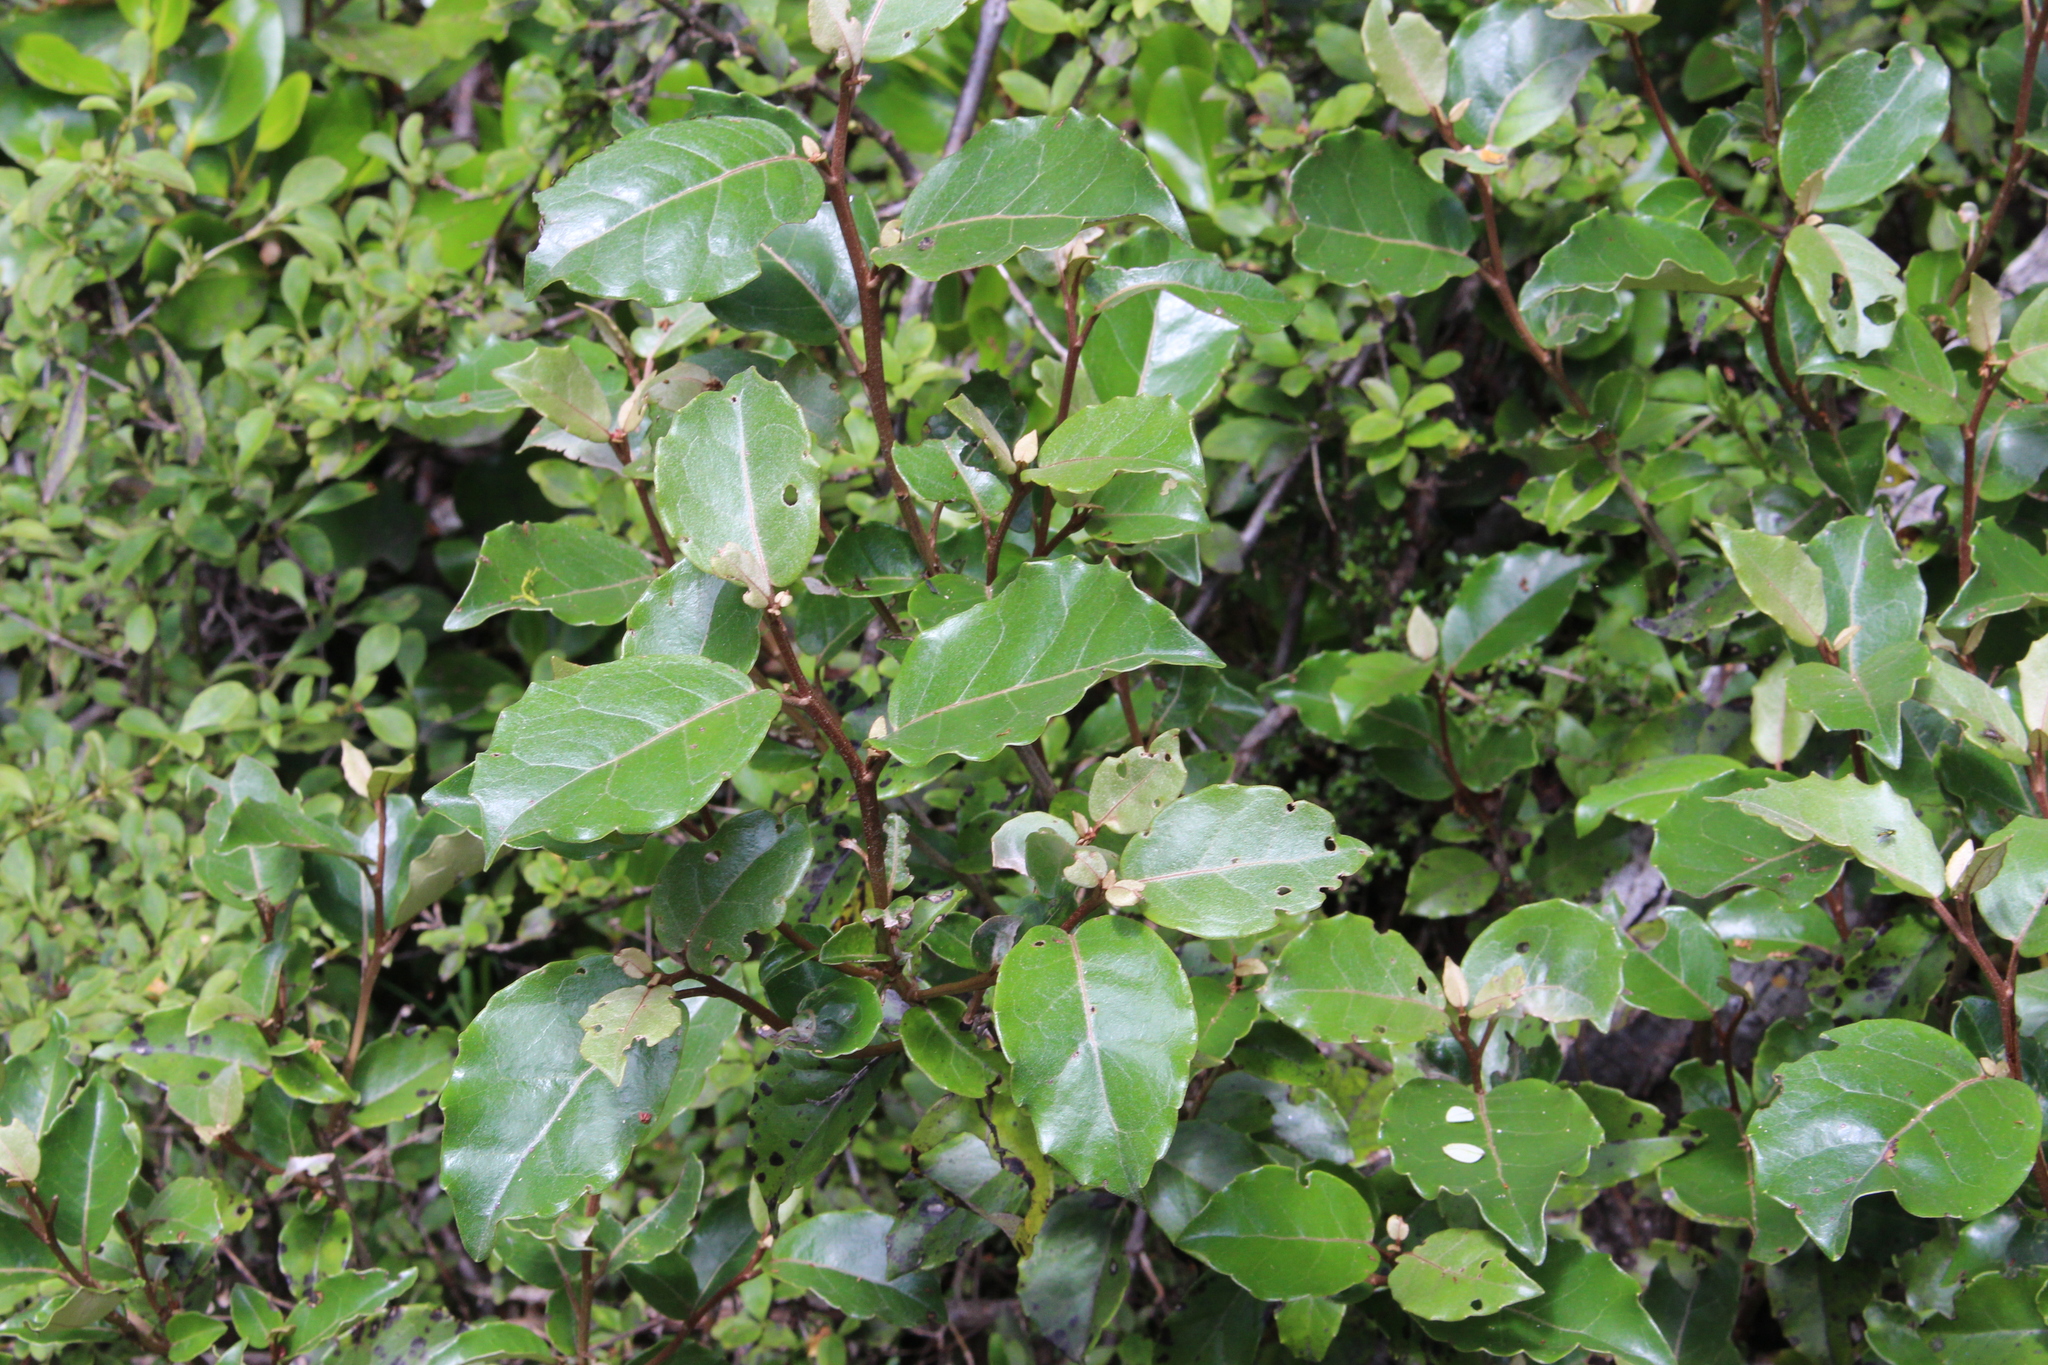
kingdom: Plantae
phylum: Tracheophyta
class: Magnoliopsida
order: Asterales
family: Asteraceae
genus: Olearia
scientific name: Olearia arborescens
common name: Glossy tree daisy
